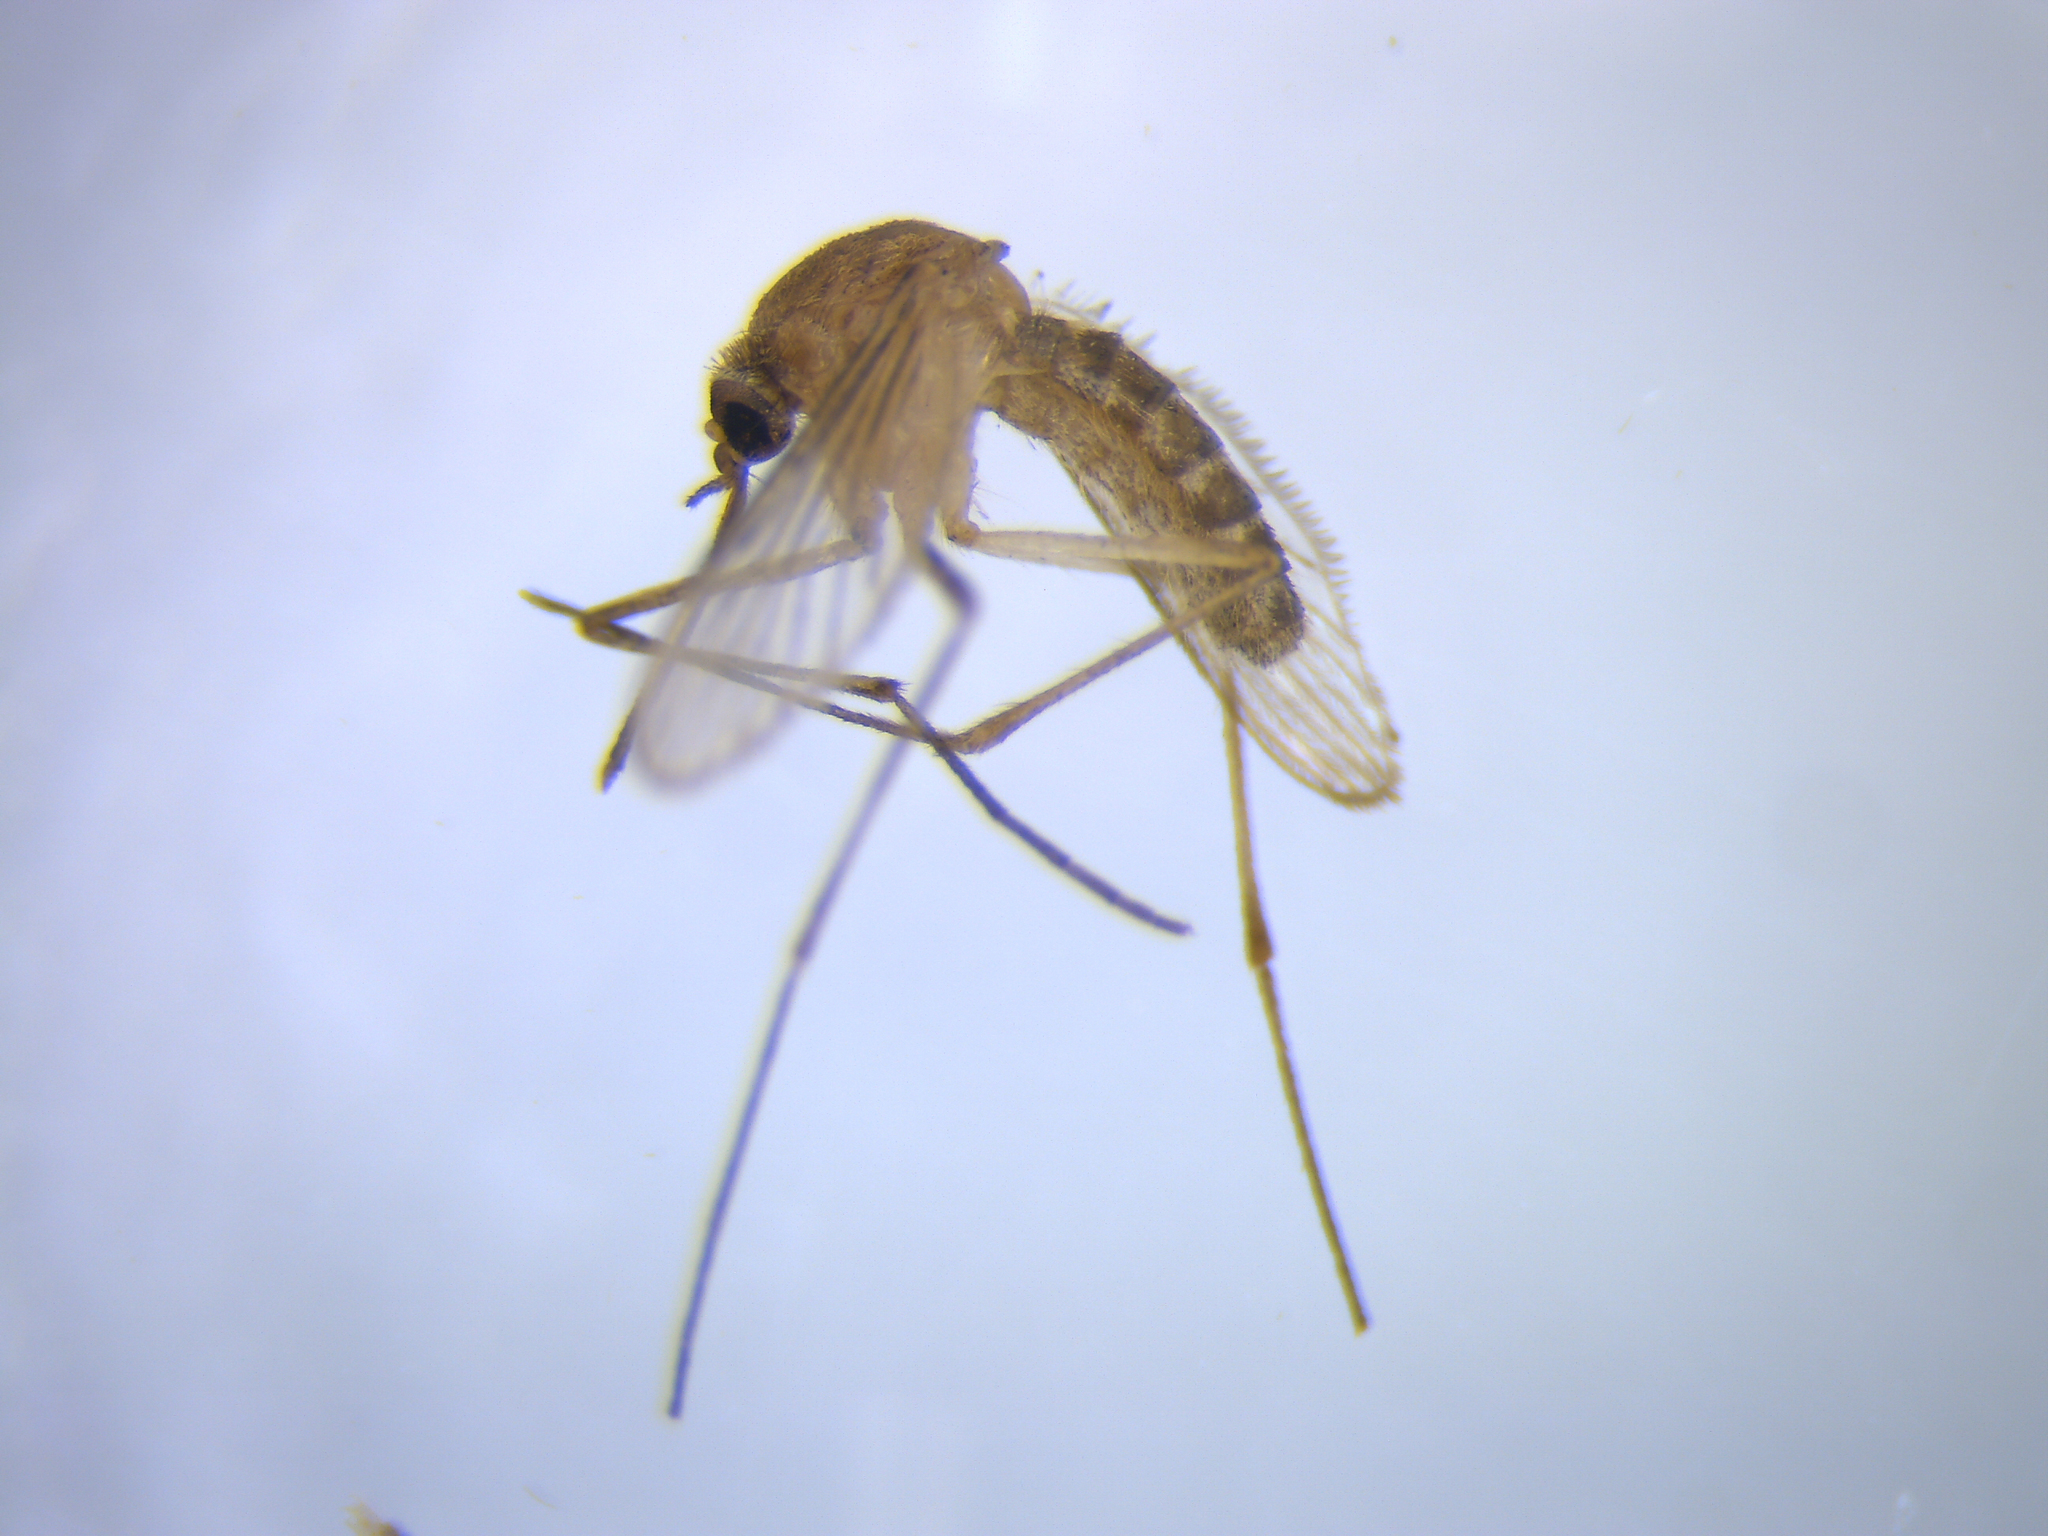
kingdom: Animalia
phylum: Arthropoda
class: Insecta
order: Diptera
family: Culicidae
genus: Culex
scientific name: Culex quinquefasciatus
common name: Southern house mosquito
